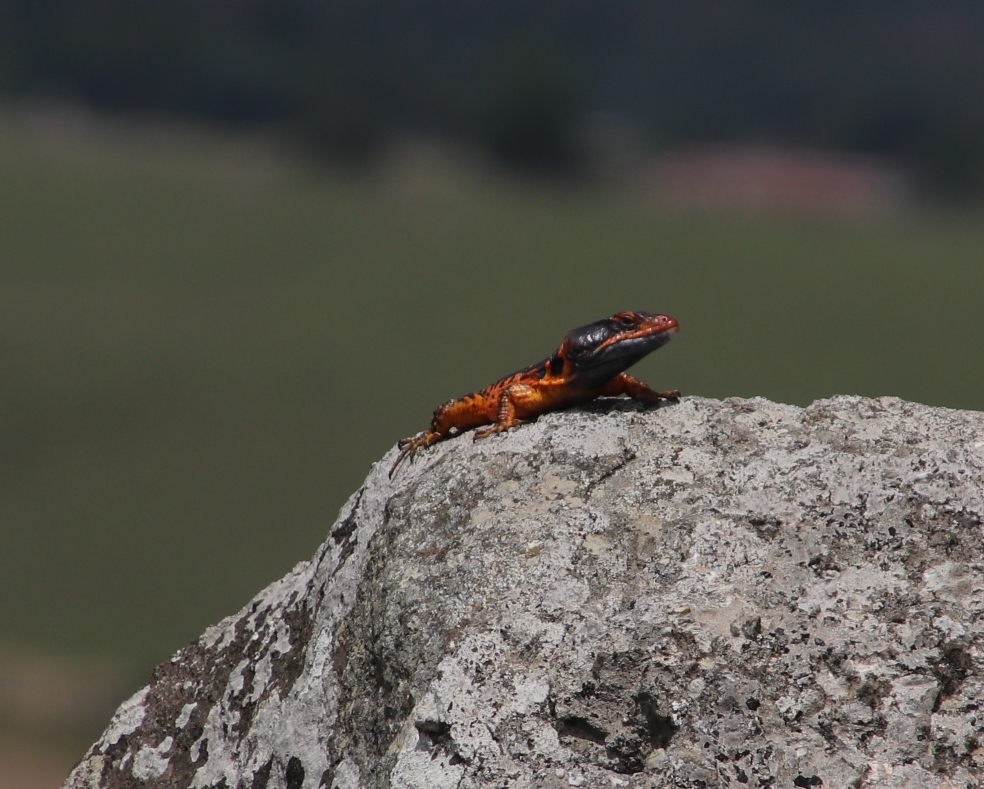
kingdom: Animalia
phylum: Chordata
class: Squamata
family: Cordylidae
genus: Pseudocordylus
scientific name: Pseudocordylus melanotus
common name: Highveld crag lizard
